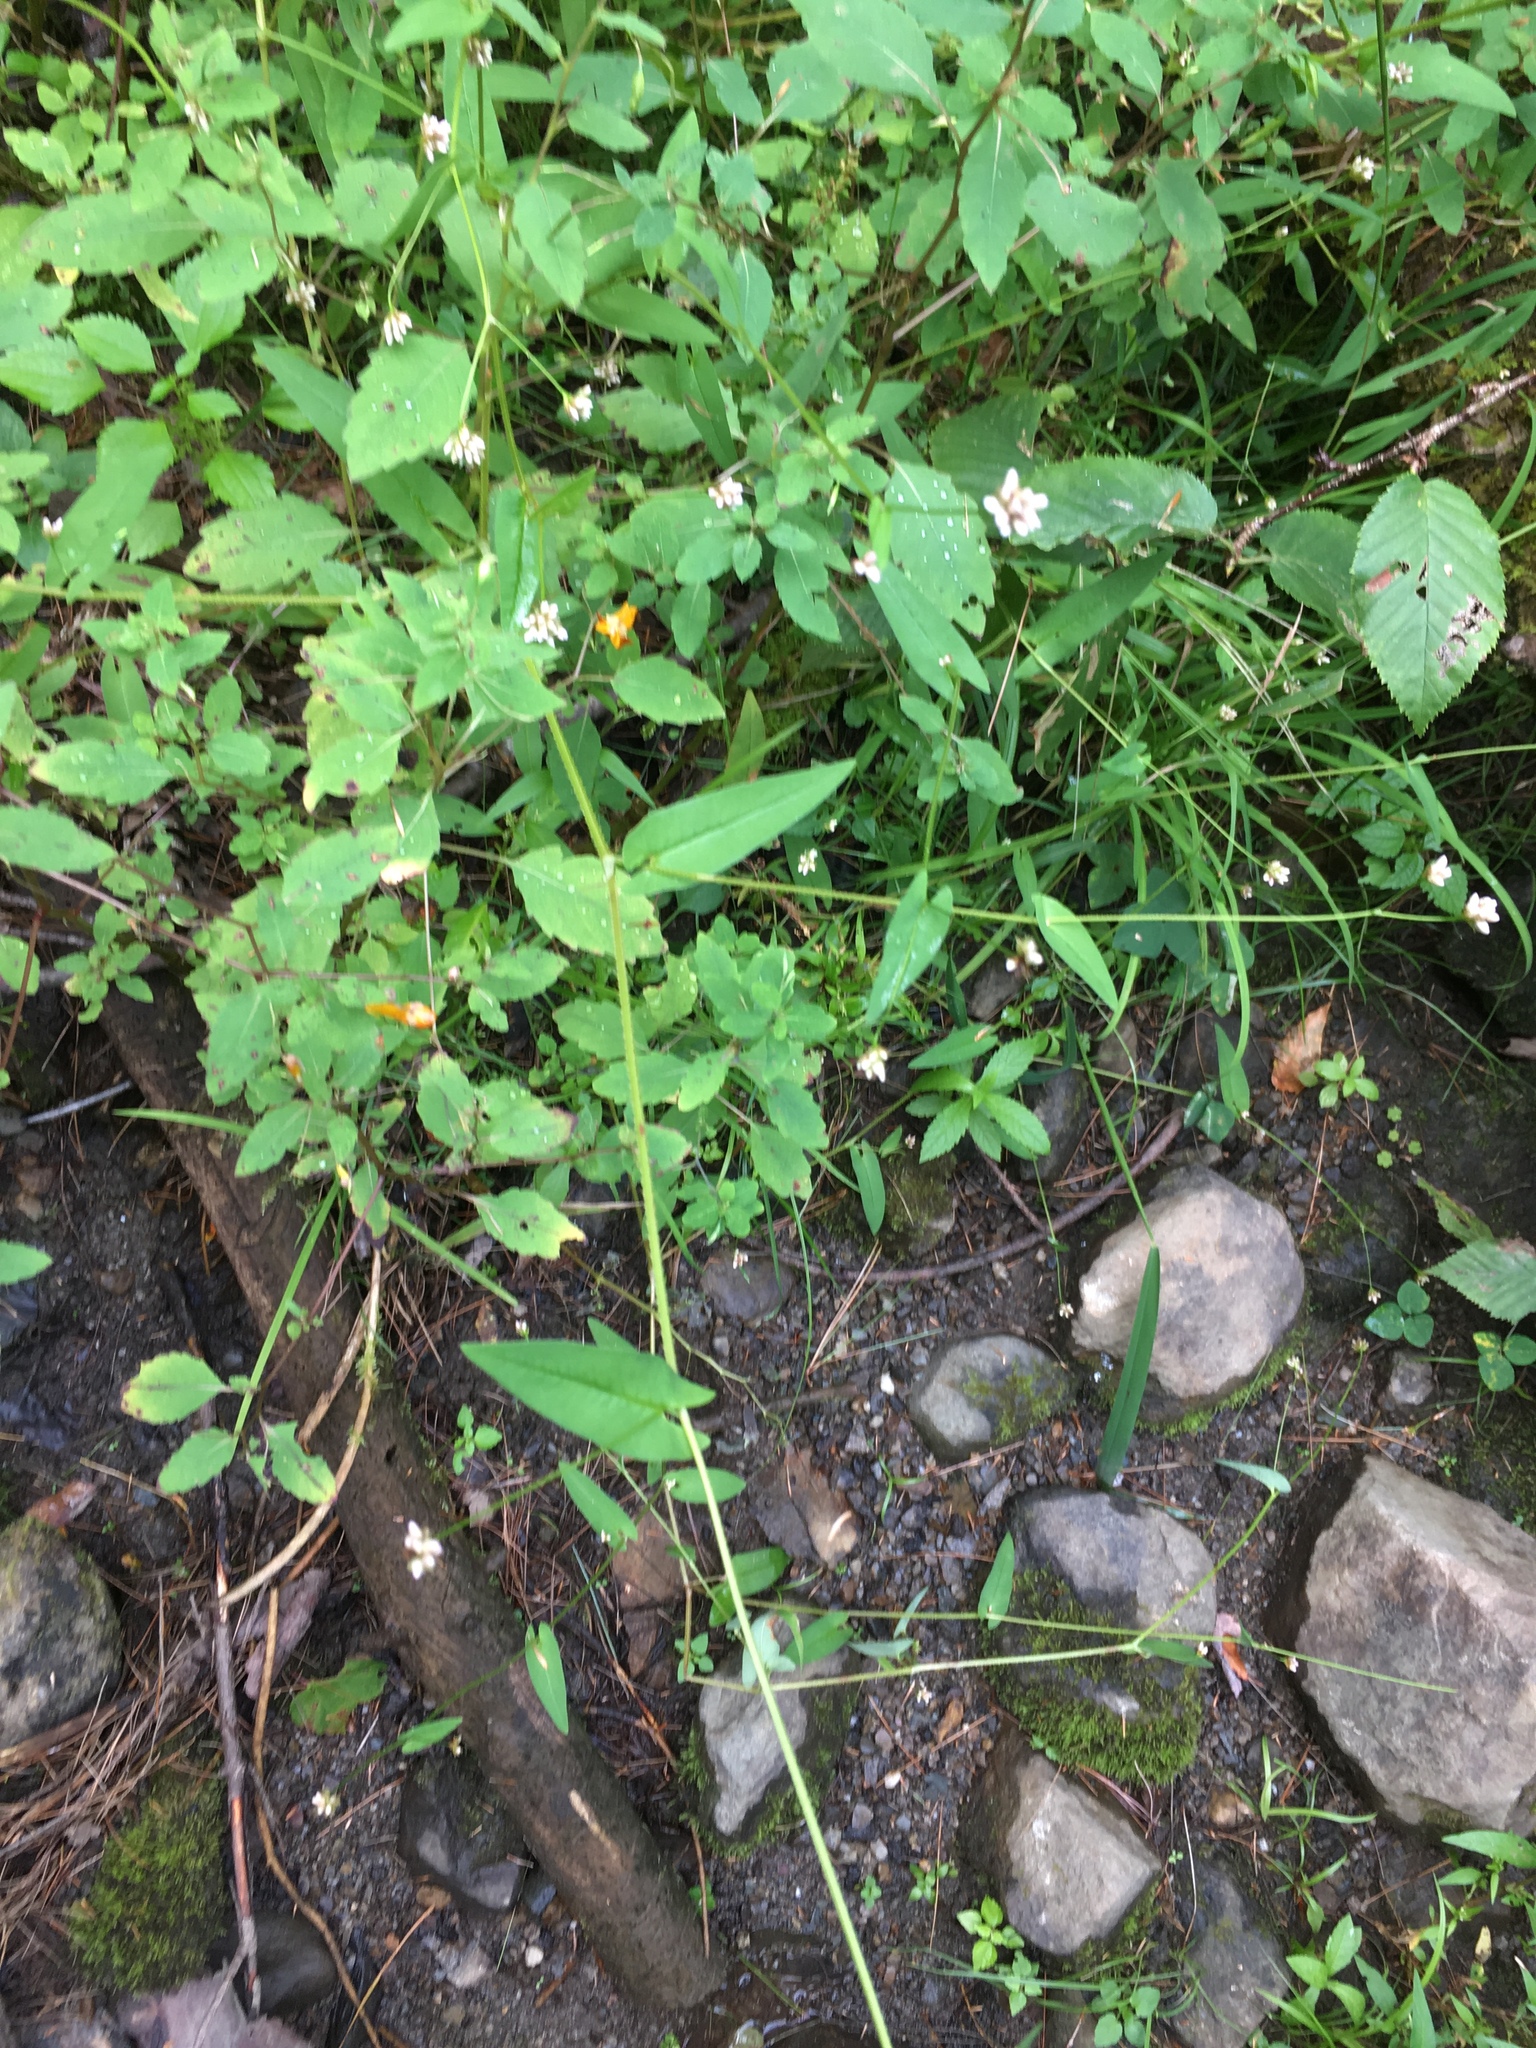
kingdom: Plantae
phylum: Tracheophyta
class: Magnoliopsida
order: Caryophyllales
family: Polygonaceae
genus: Persicaria
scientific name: Persicaria sagittata
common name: American tearthumb
